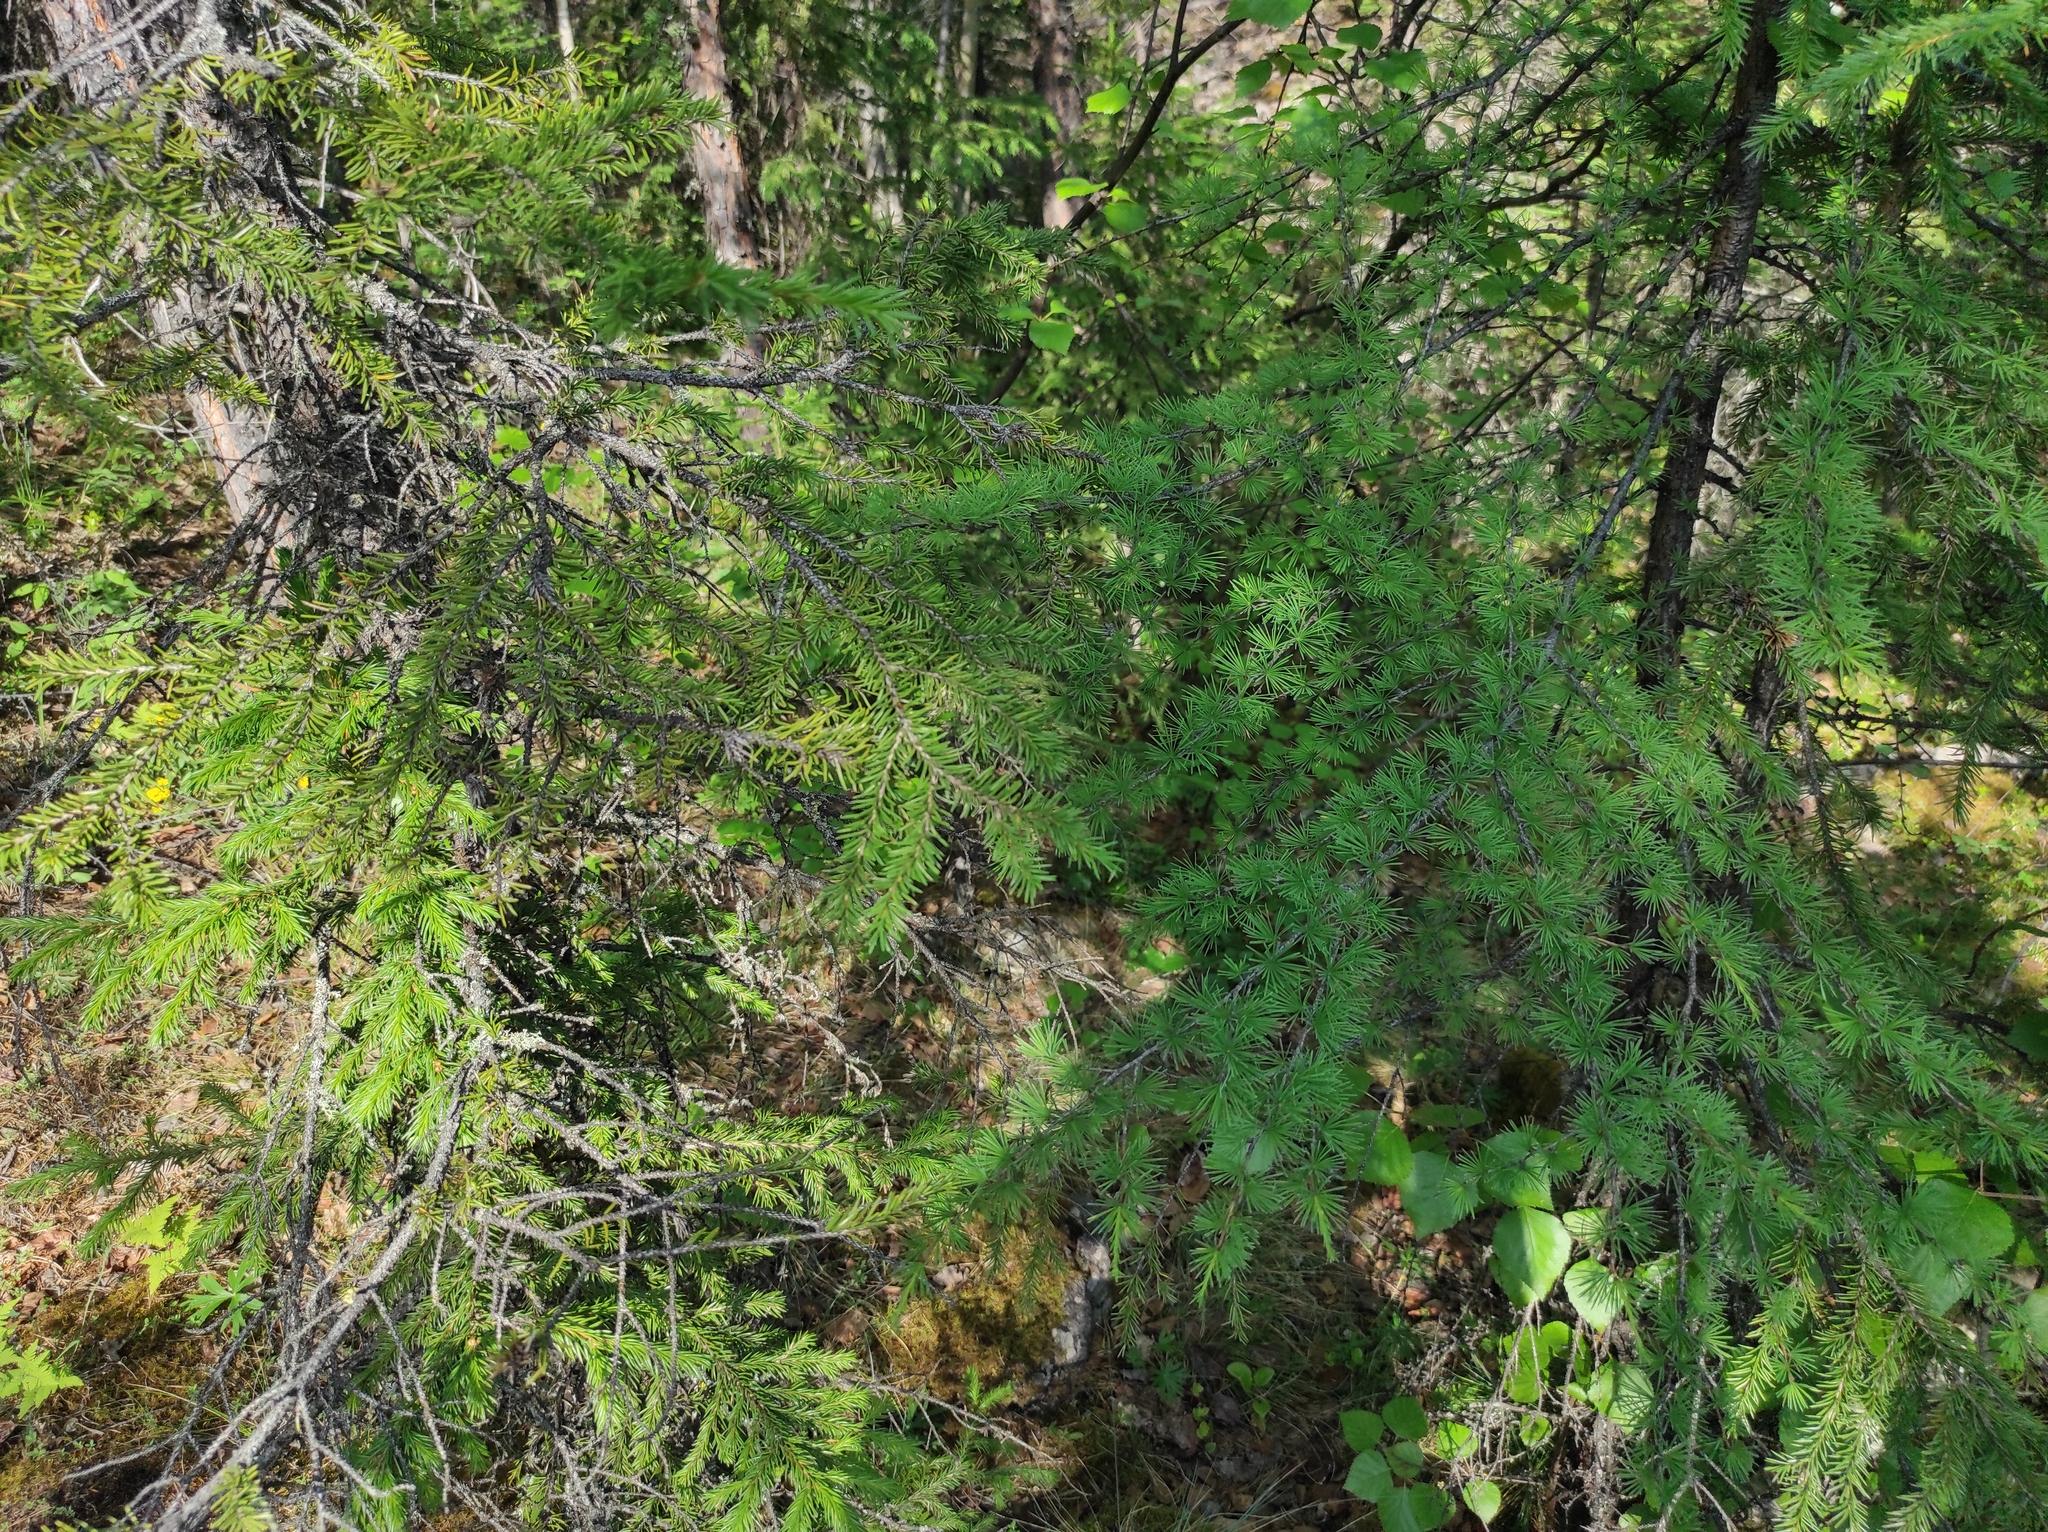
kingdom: Plantae
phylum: Tracheophyta
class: Pinopsida
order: Pinales
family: Pinaceae
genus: Picea
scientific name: Picea obovata
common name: Siberian spruce
